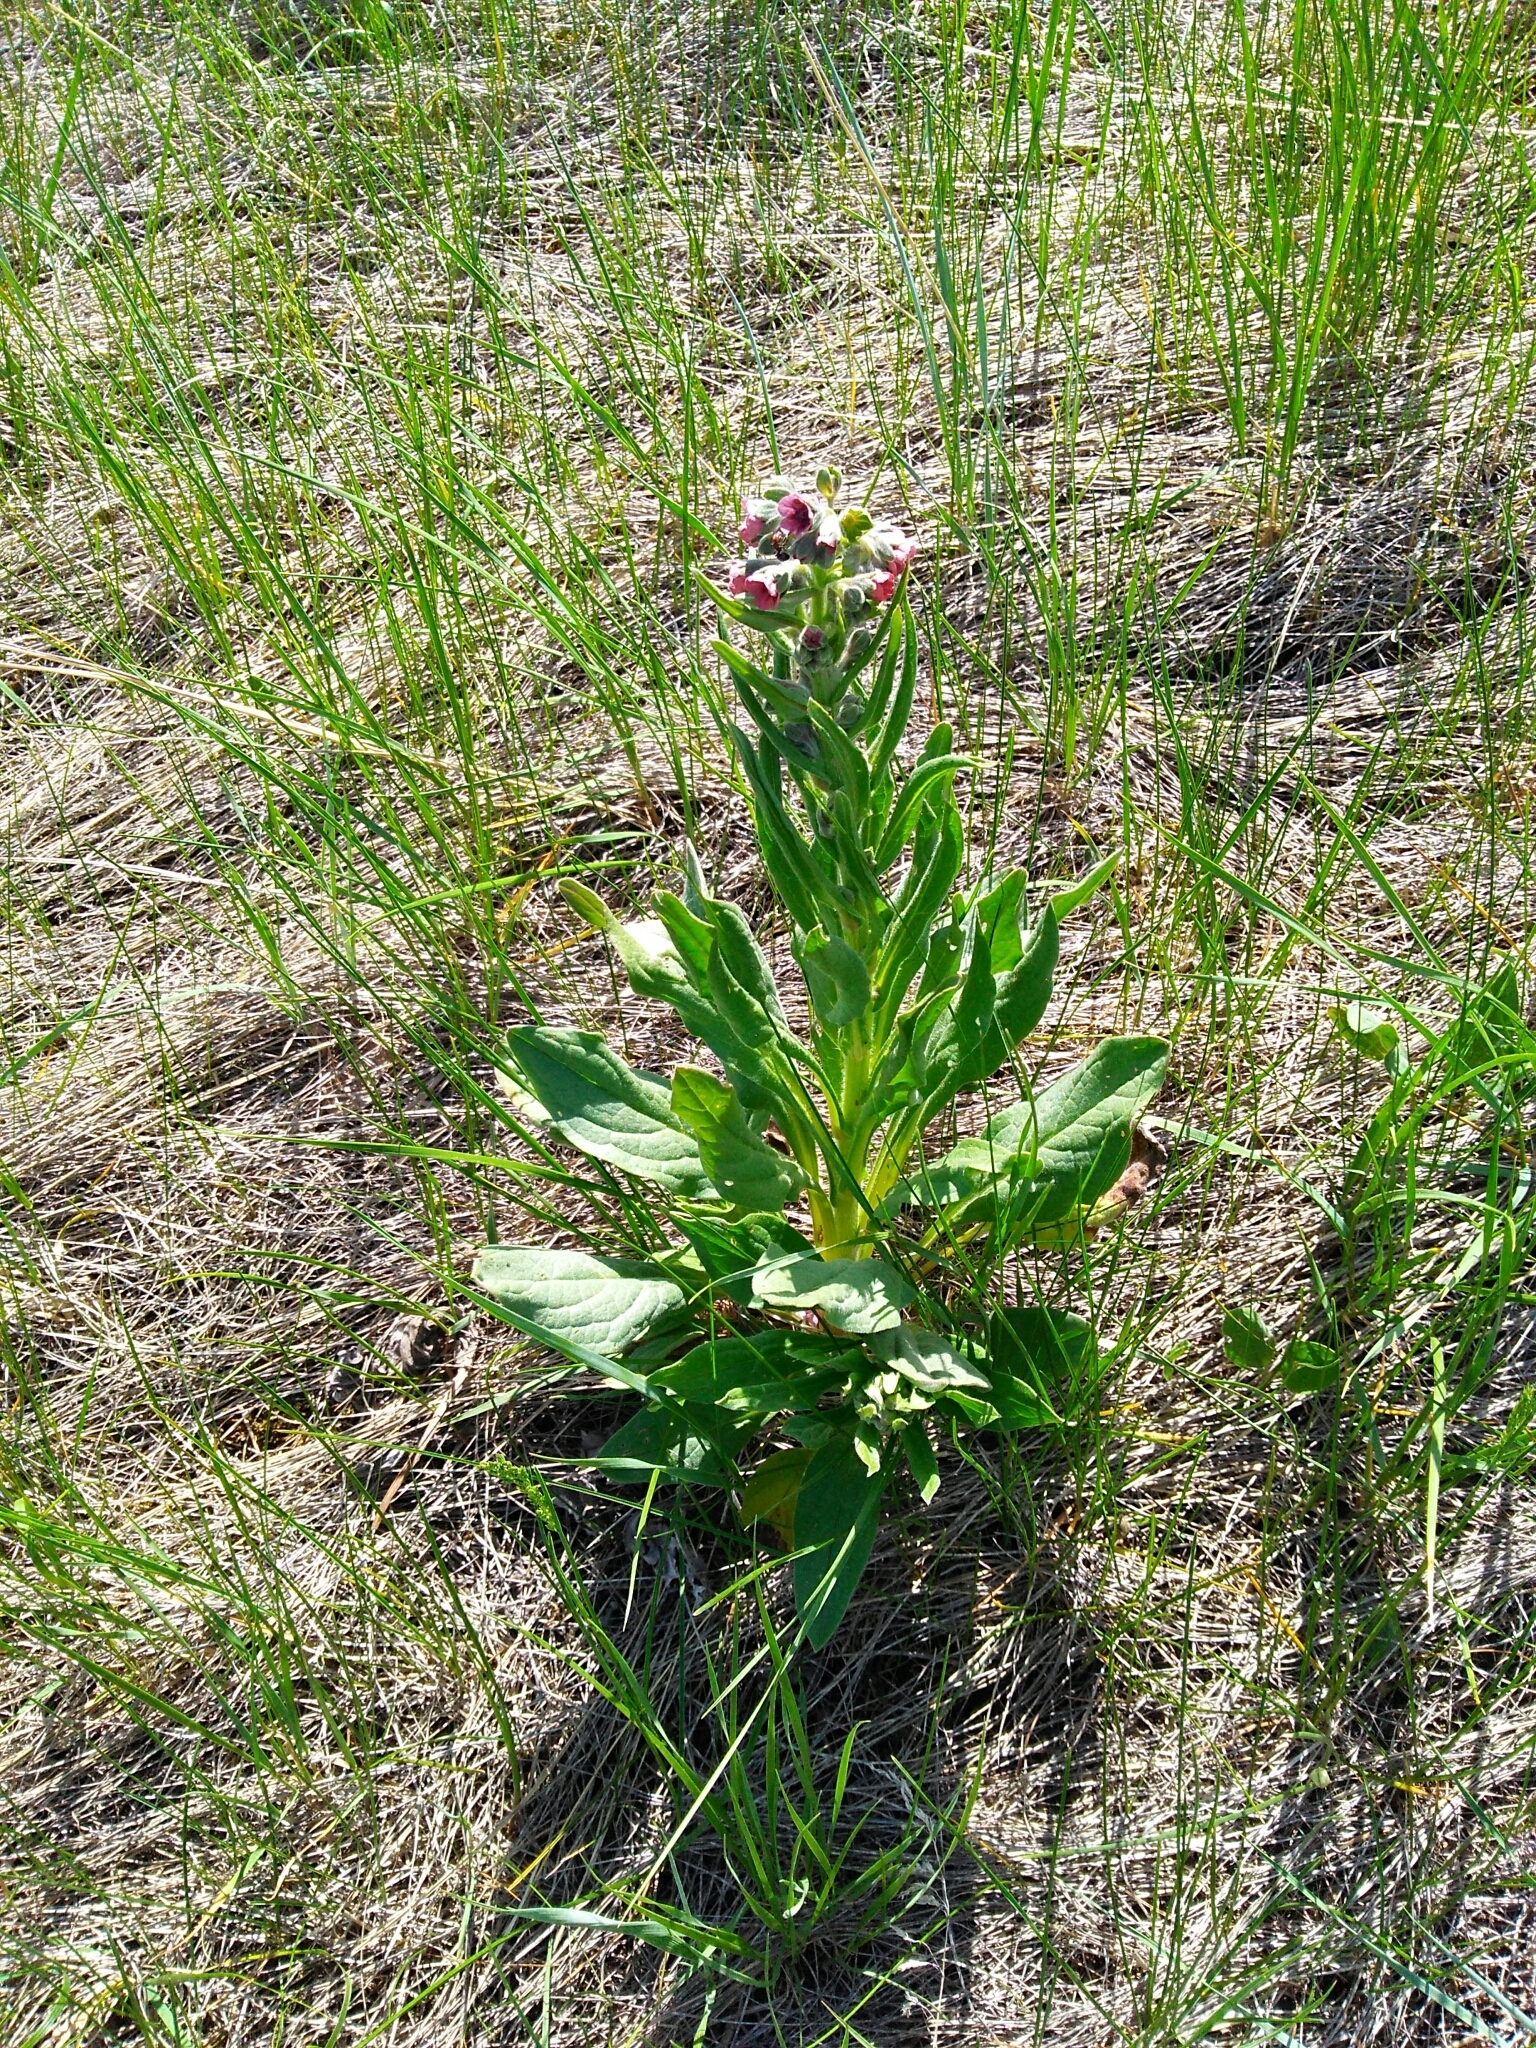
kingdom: Plantae
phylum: Tracheophyta
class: Magnoliopsida
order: Boraginales
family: Boraginaceae
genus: Cynoglossum
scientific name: Cynoglossum officinale
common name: Hound's-tongue
